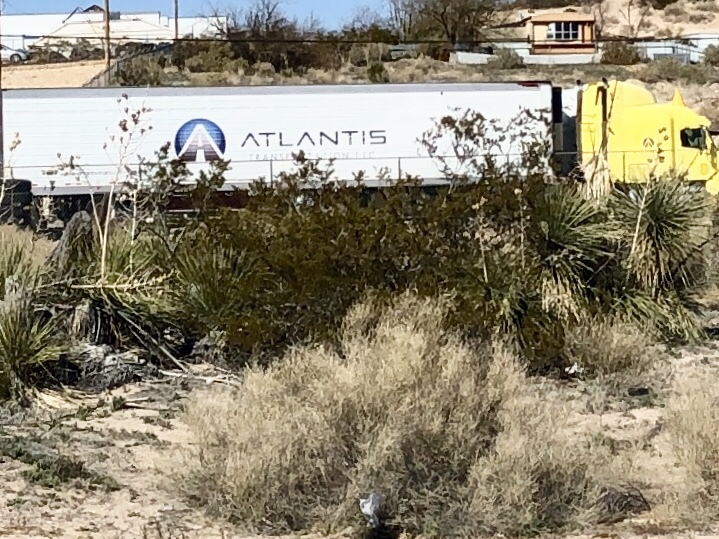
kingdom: Plantae
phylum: Tracheophyta
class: Magnoliopsida
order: Zygophyllales
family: Zygophyllaceae
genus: Larrea
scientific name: Larrea tridentata
